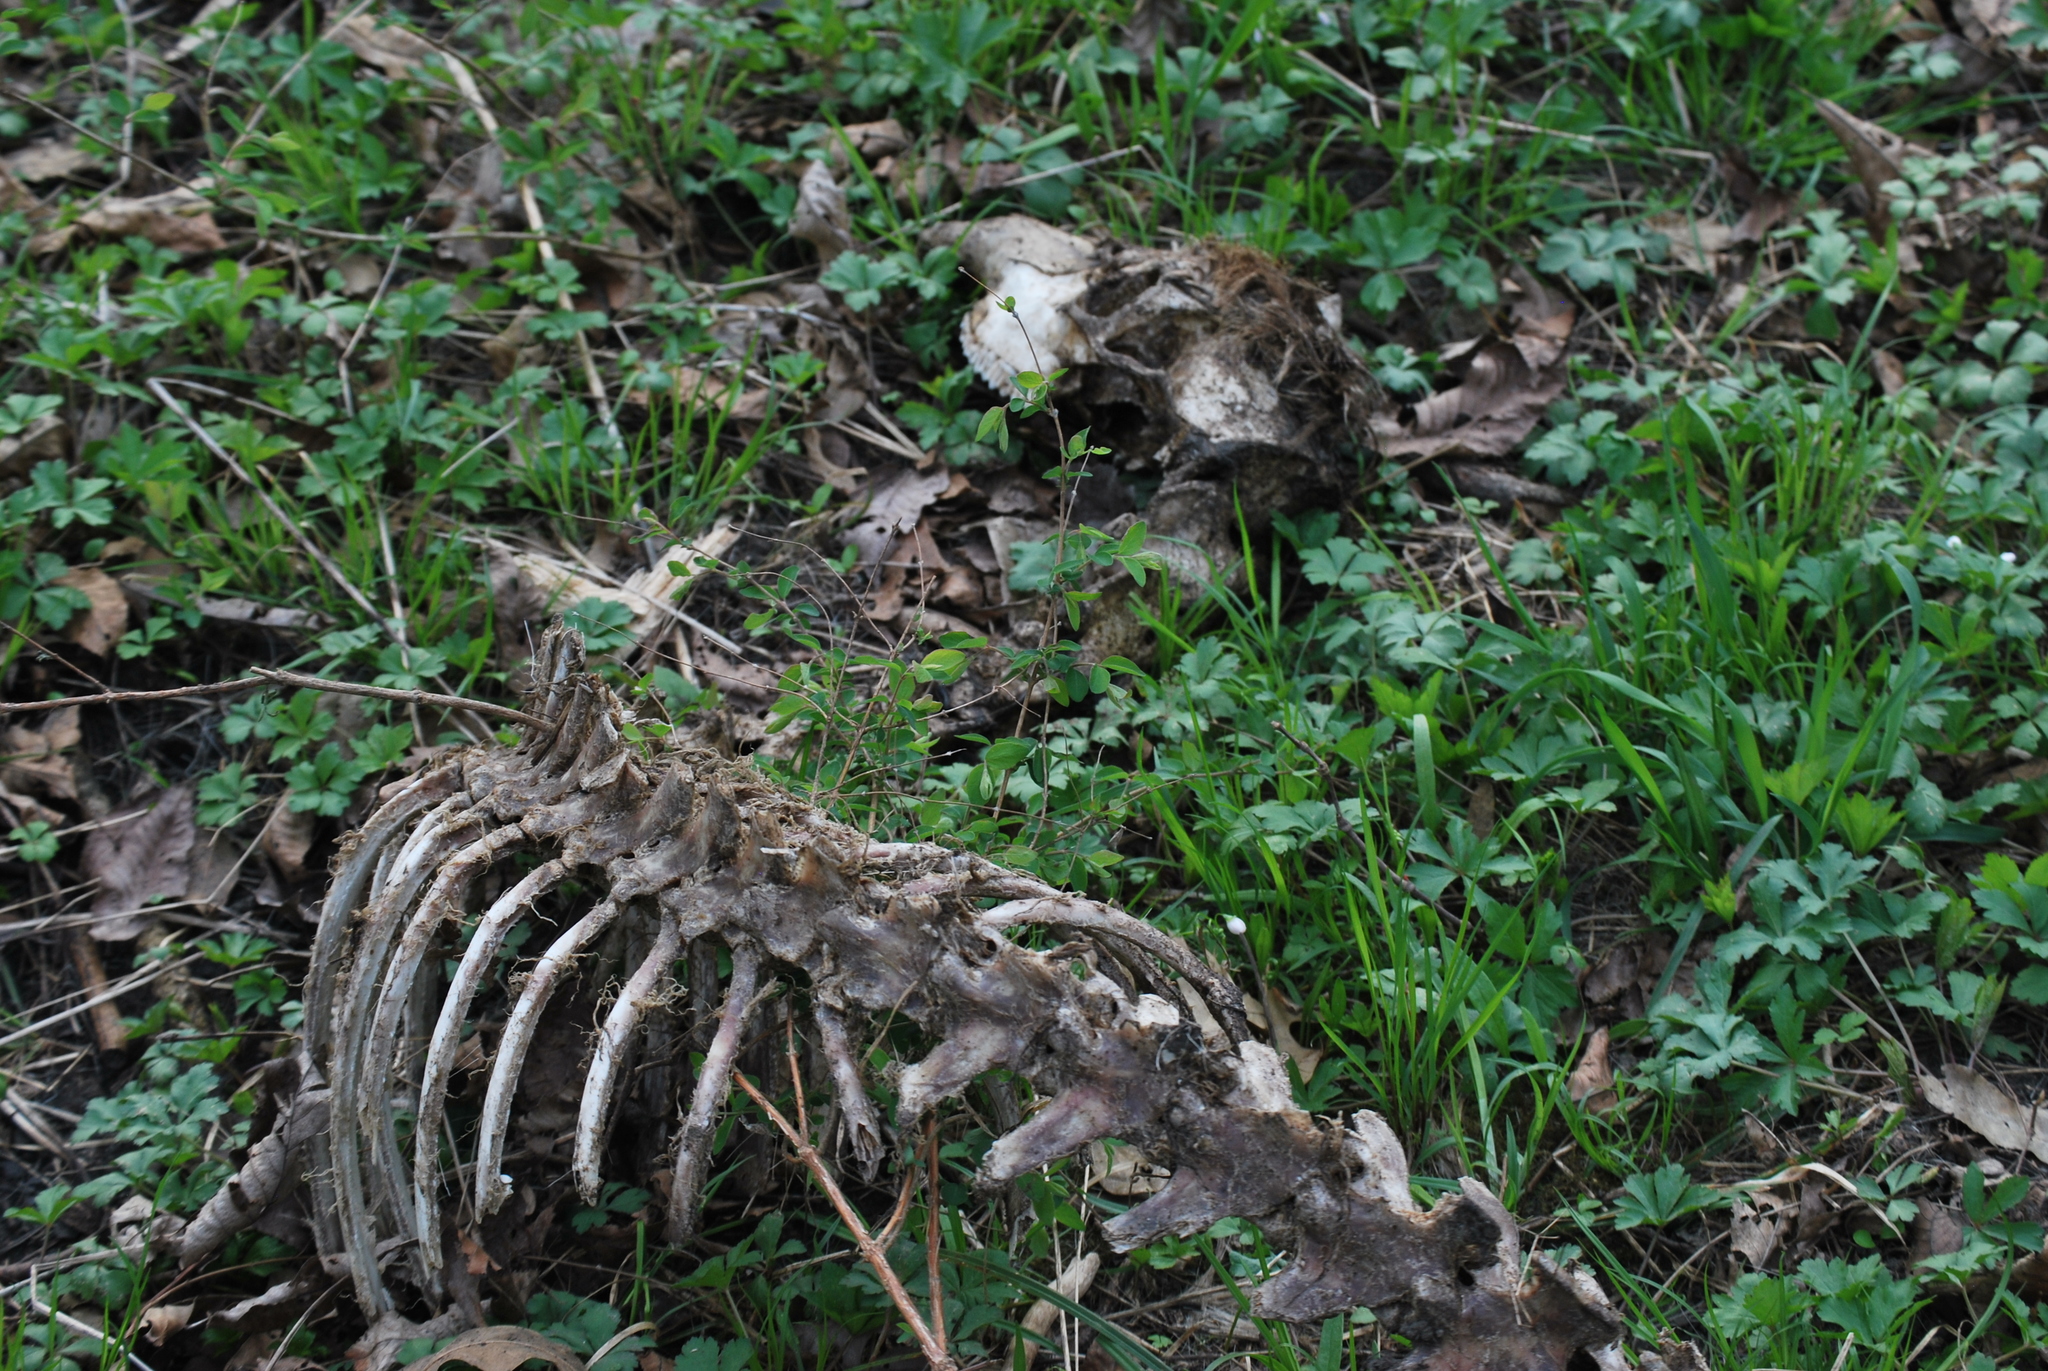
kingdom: Animalia
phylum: Chordata
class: Mammalia
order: Artiodactyla
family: Cervidae
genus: Odocoileus
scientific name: Odocoileus virginianus
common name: White-tailed deer
